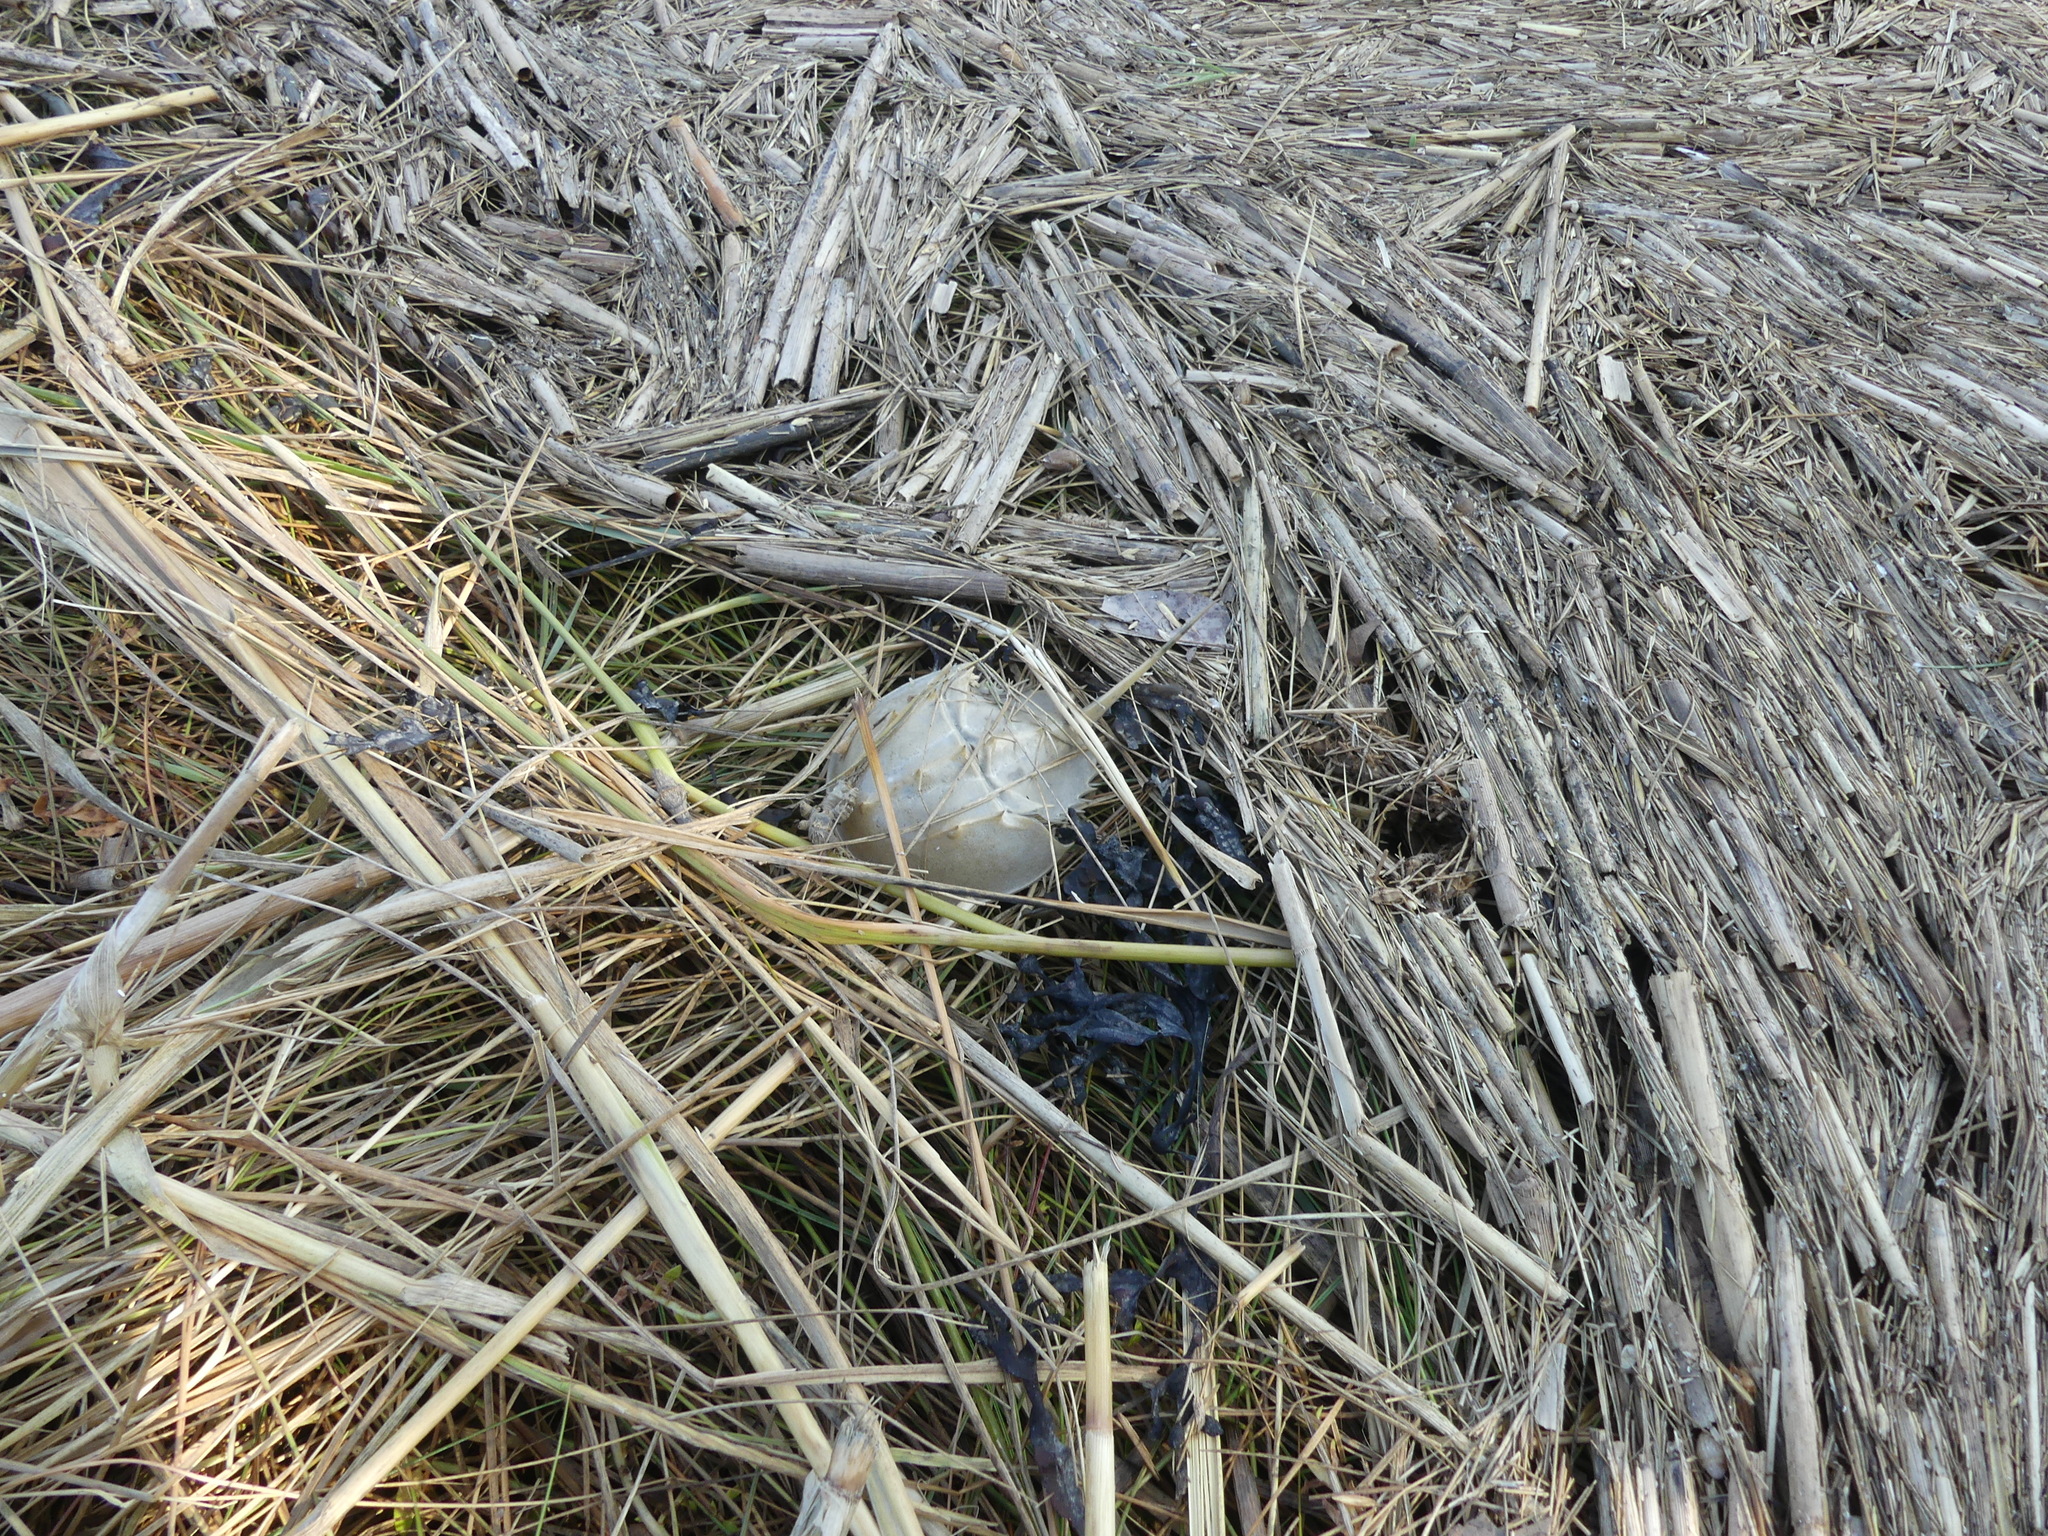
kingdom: Animalia
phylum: Arthropoda
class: Merostomata
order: Xiphosurida
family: Limulidae
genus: Limulus
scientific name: Limulus polyphemus
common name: Horseshoe crab
